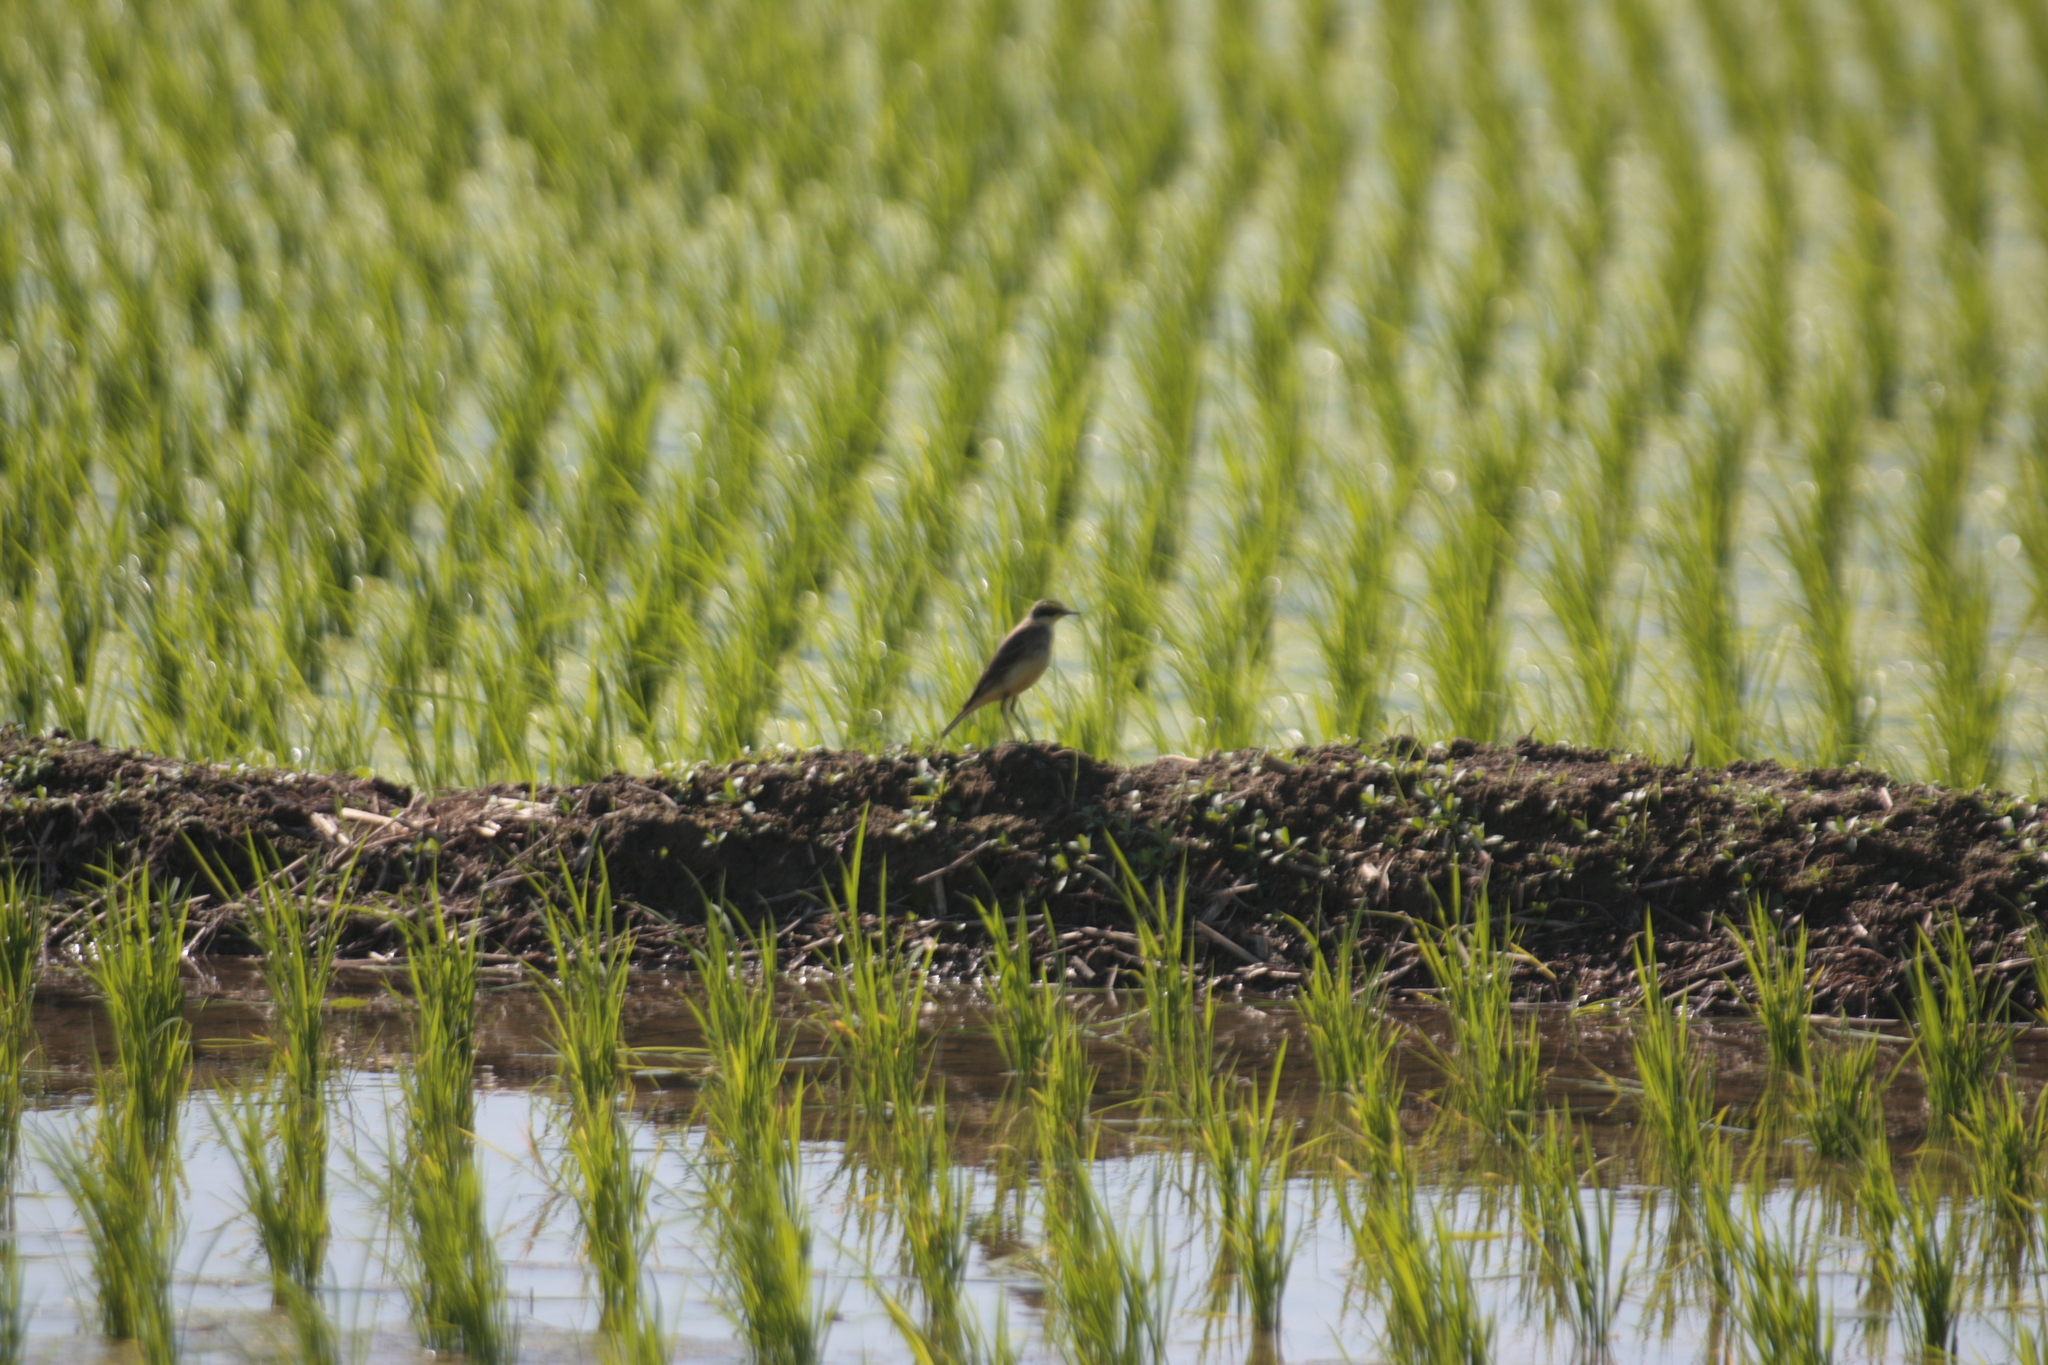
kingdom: Animalia
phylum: Chordata
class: Aves
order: Passeriformes
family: Motacillidae
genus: Motacilla
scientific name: Motacilla tschutschensis
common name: Eastern yellow wagtail
